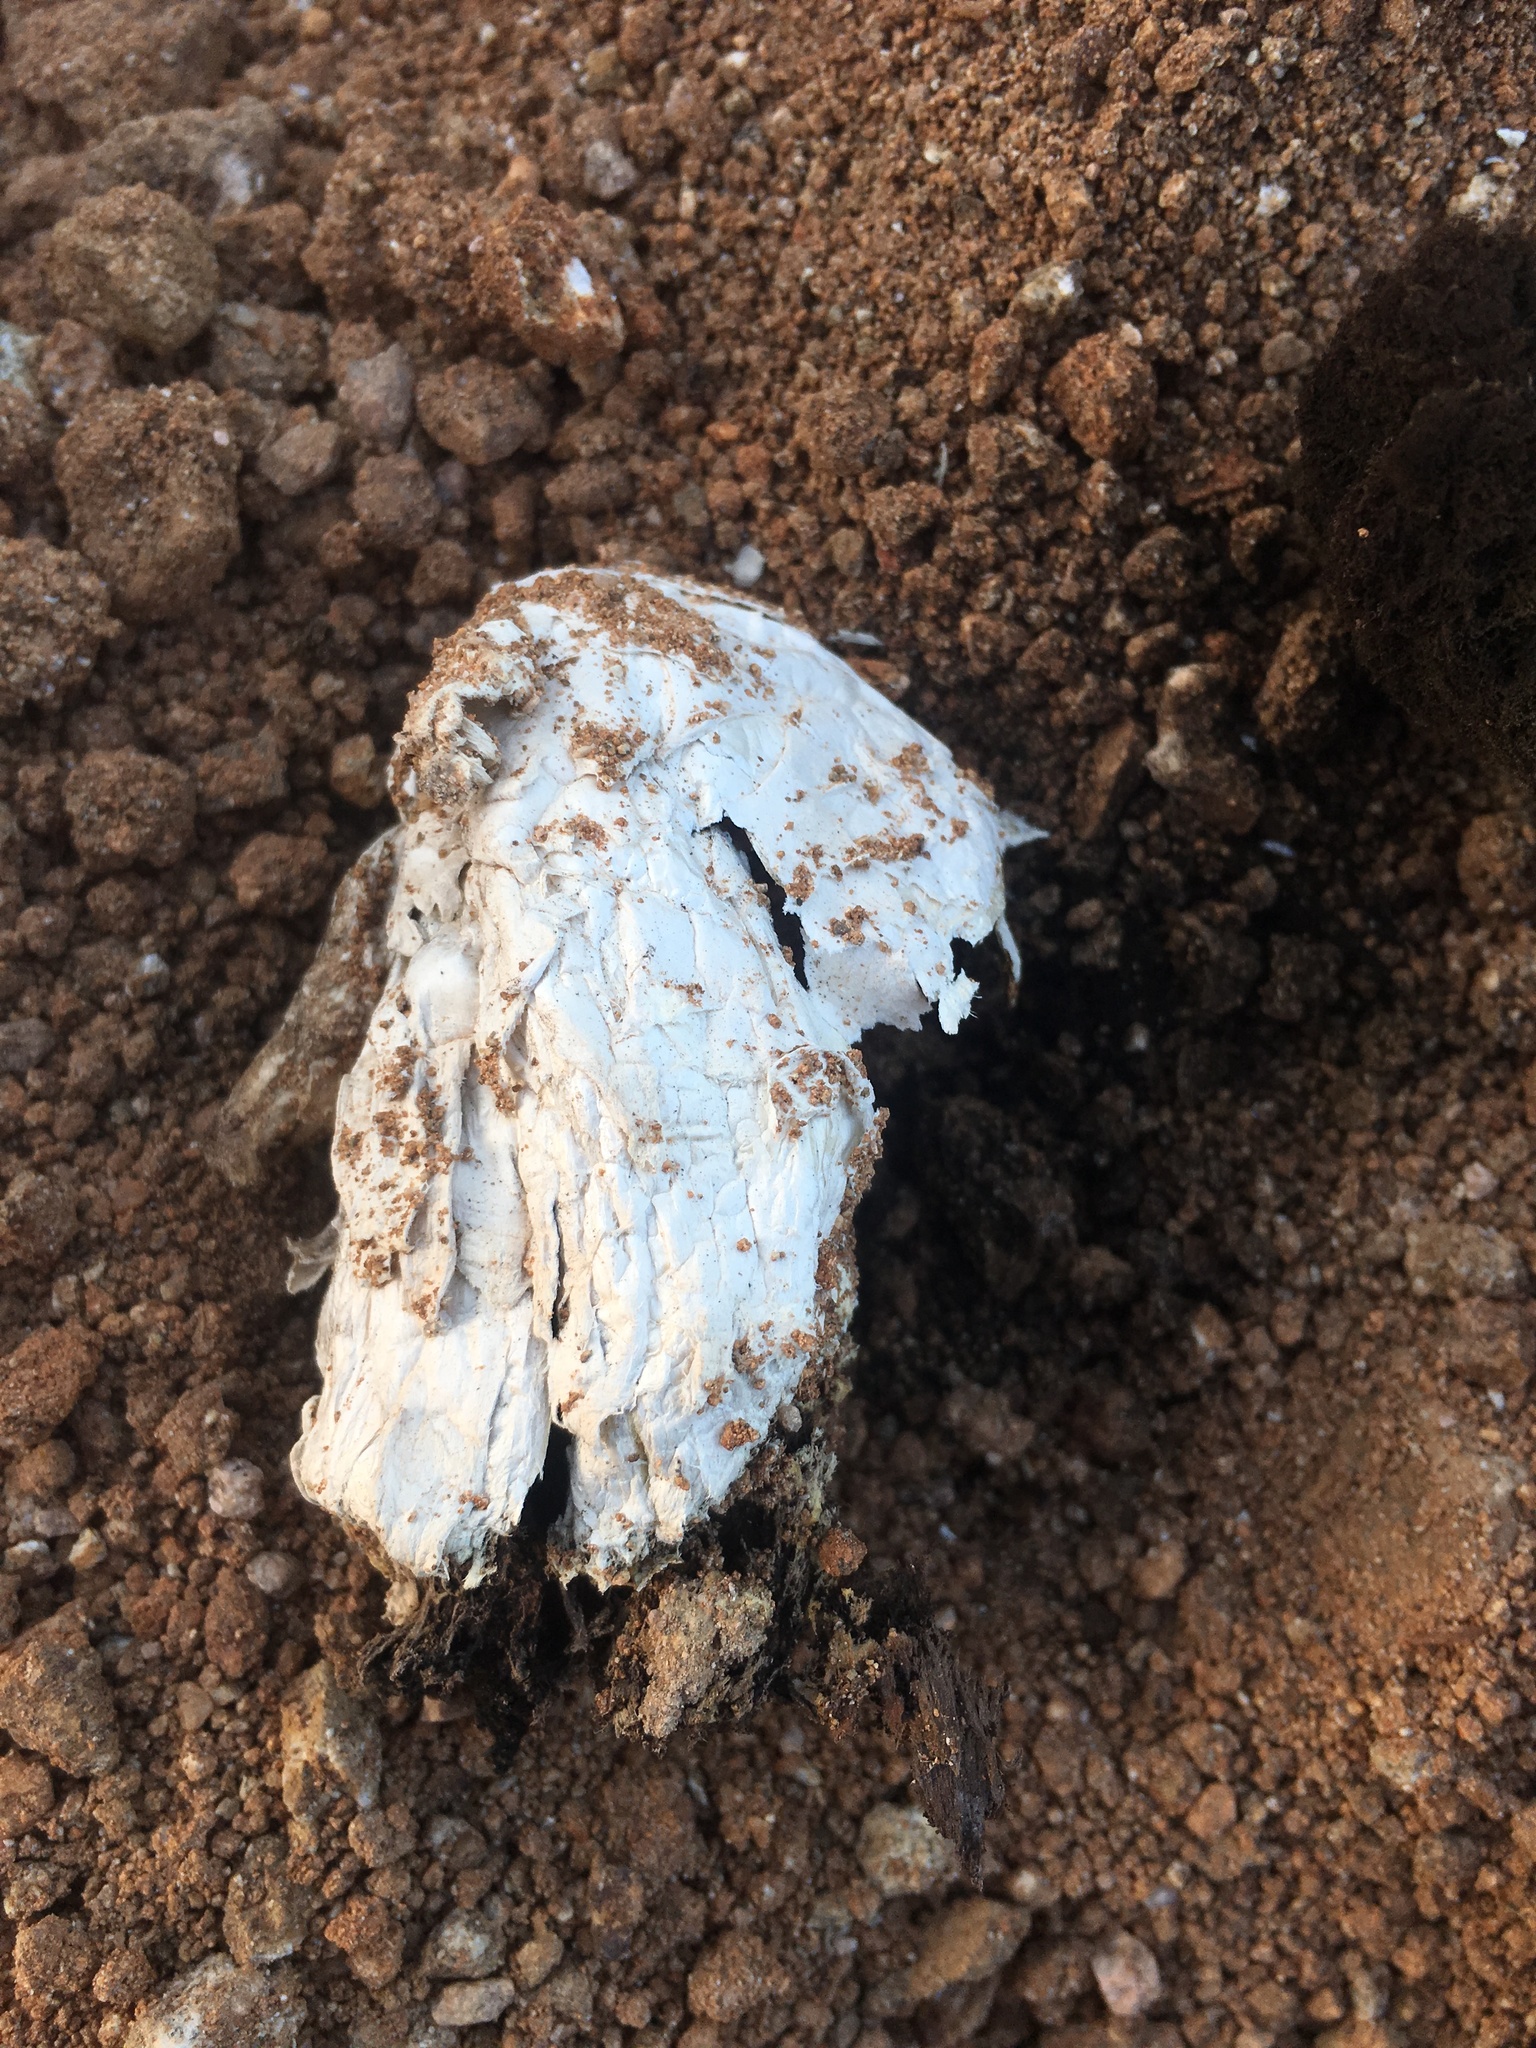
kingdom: Fungi
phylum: Basidiomycota
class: Agaricomycetes
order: Agaricales
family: Agaricaceae
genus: Podaxis
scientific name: Podaxis pistillaris
